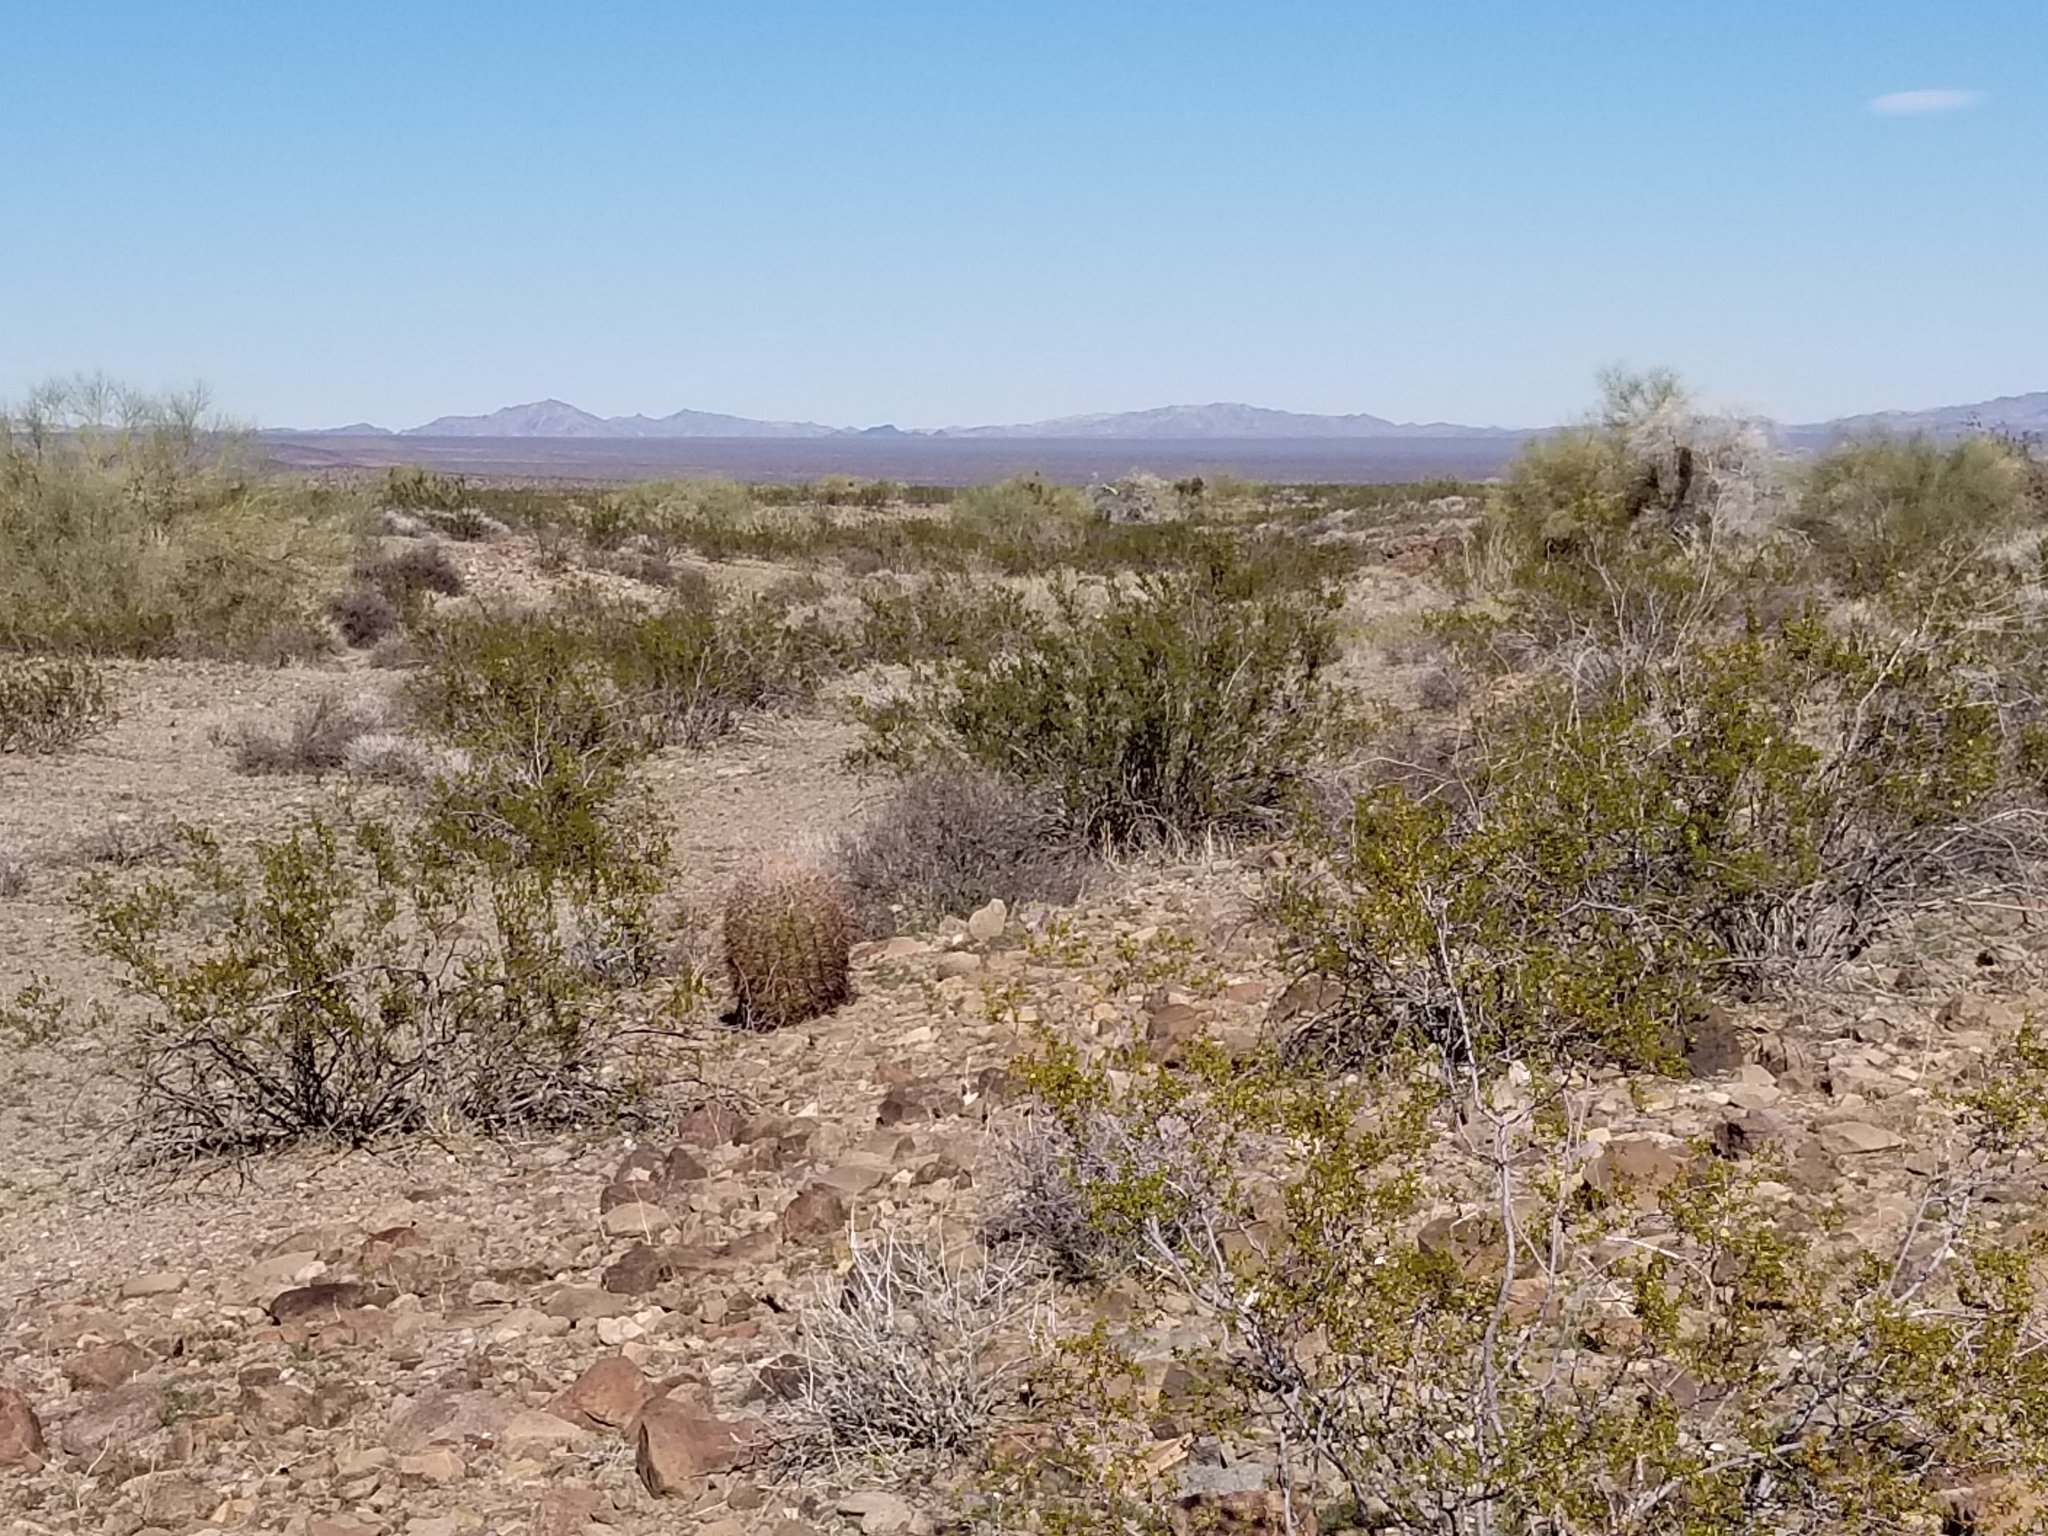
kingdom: Plantae
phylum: Tracheophyta
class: Magnoliopsida
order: Caryophyllales
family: Cactaceae
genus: Ferocactus
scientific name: Ferocactus cylindraceus
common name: California barrel cactus
